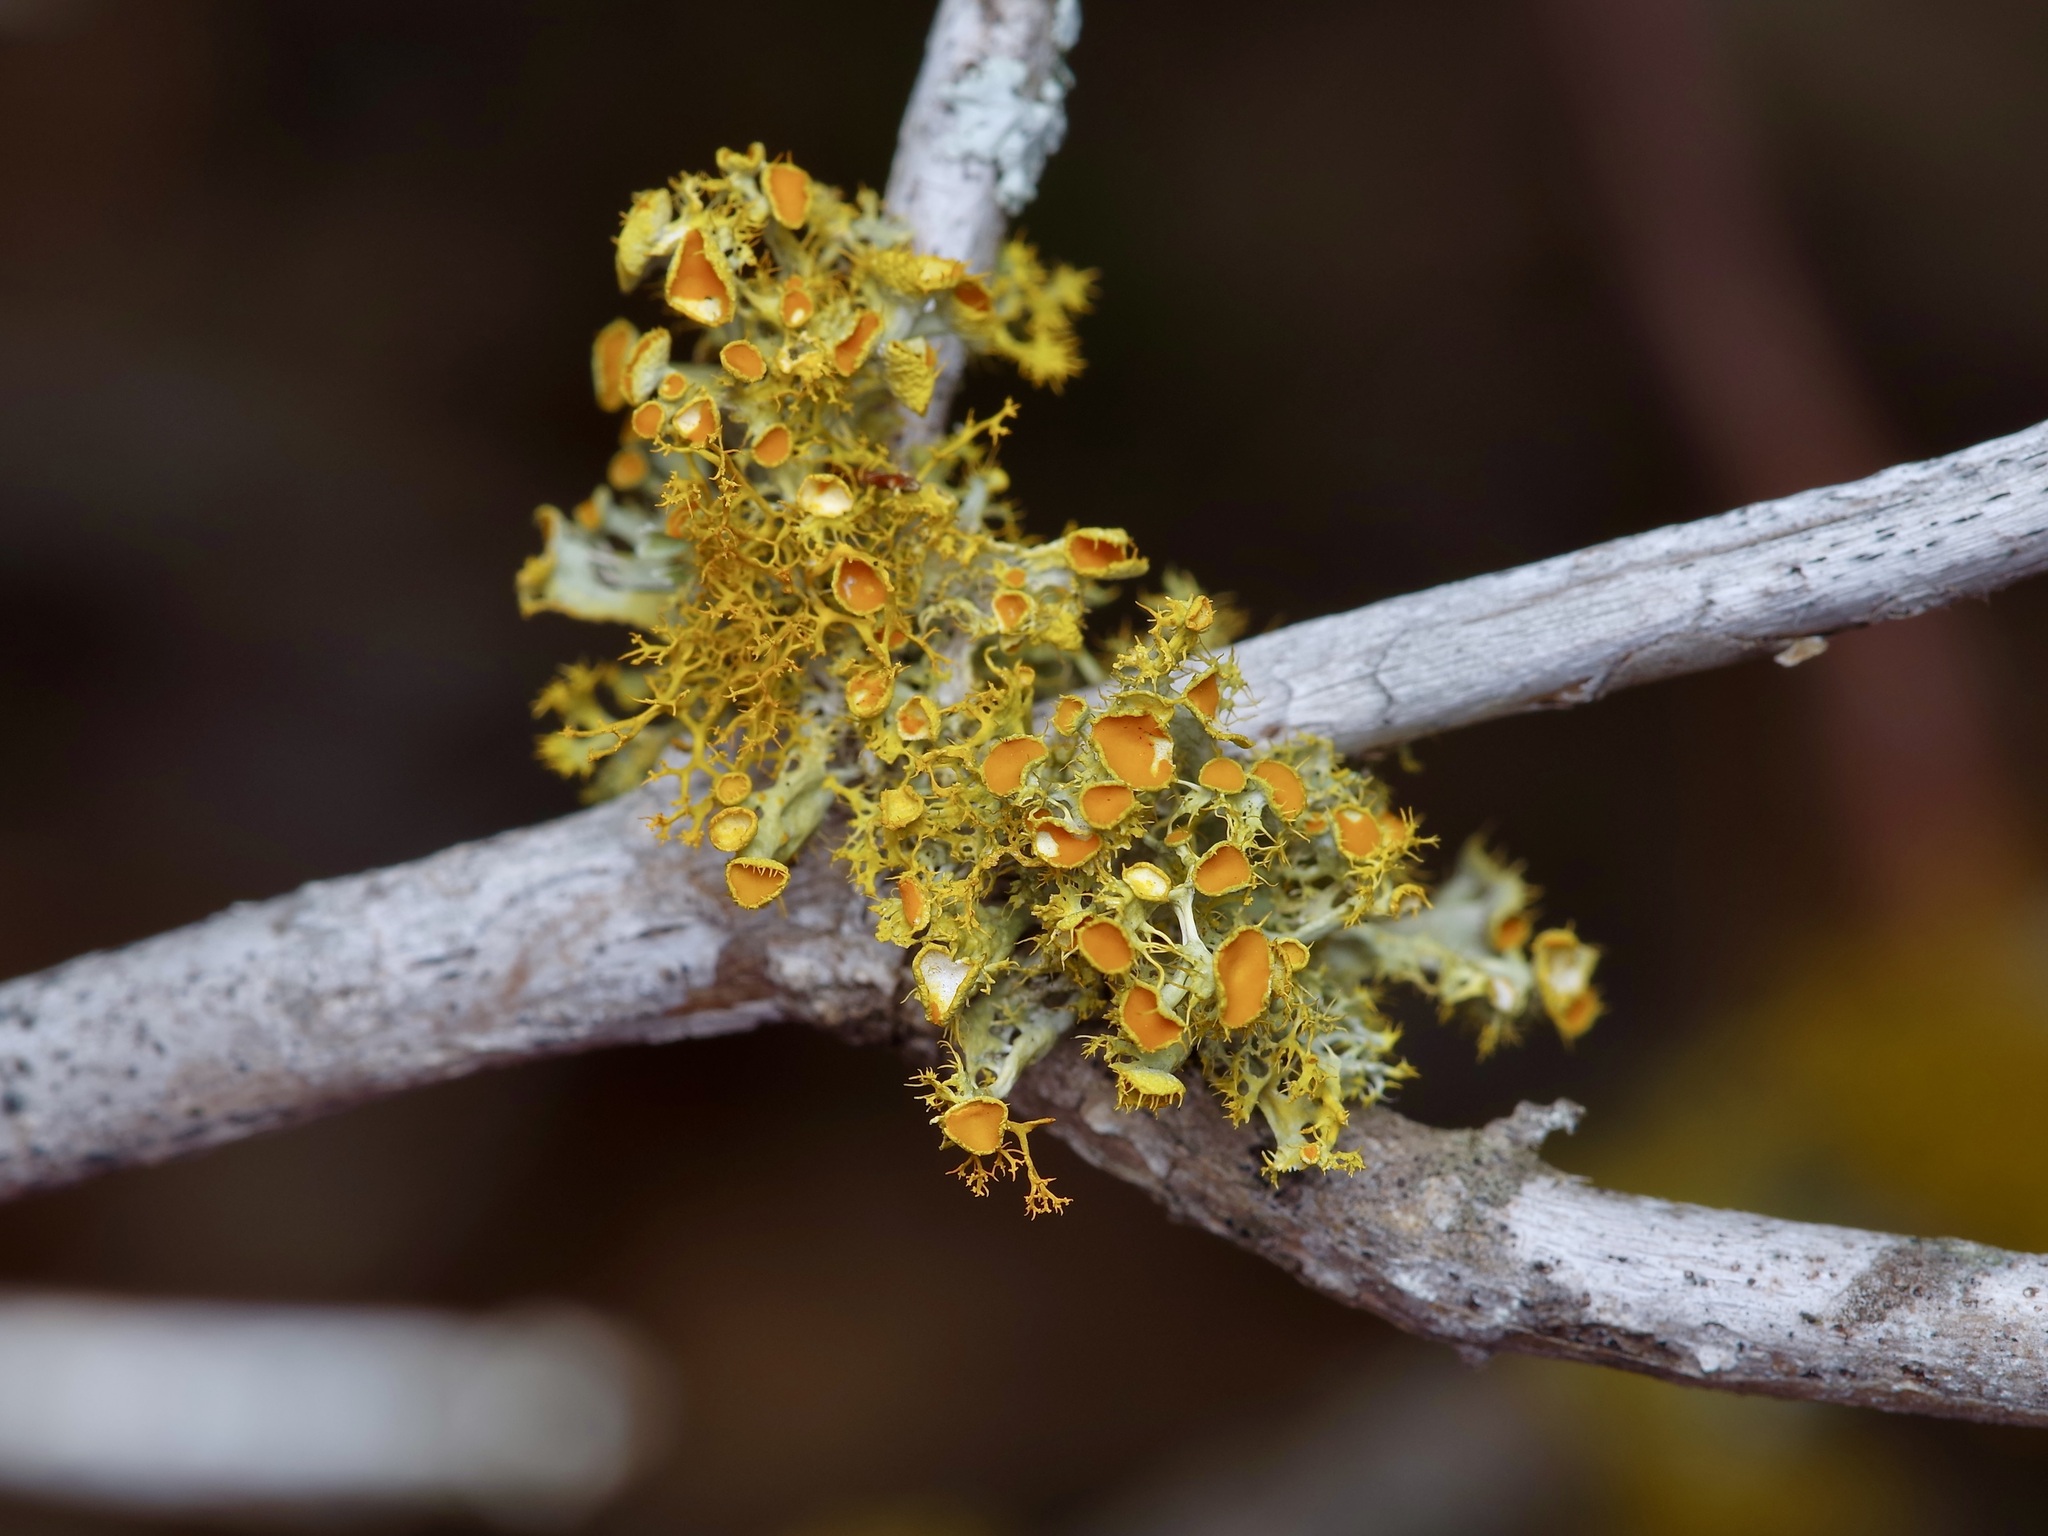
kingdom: Fungi
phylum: Ascomycota
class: Lecanoromycetes
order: Teloschistales
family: Teloschistaceae
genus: Niorma
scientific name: Niorma chrysophthalma
